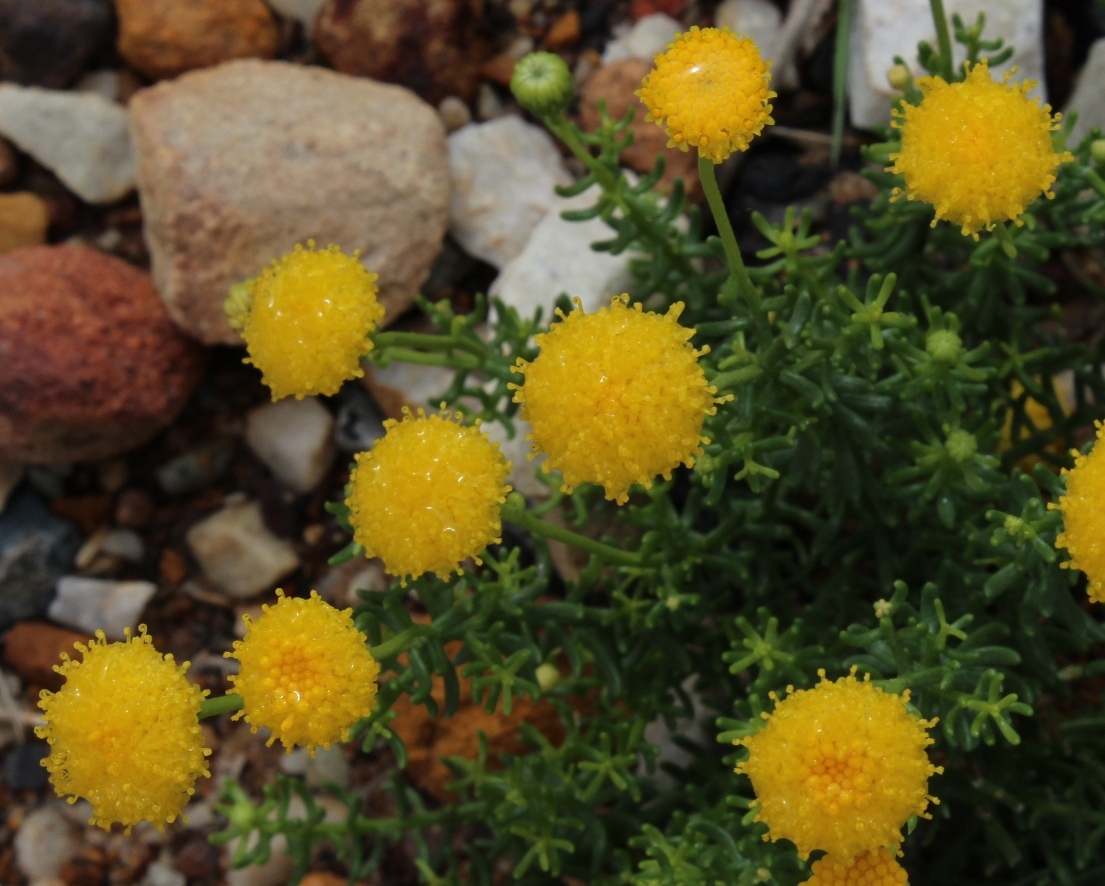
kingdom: Plantae
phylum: Tracheophyta
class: Magnoliopsida
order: Asterales
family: Asteraceae
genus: Chrysocoma
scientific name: Chrysocoma cernua
